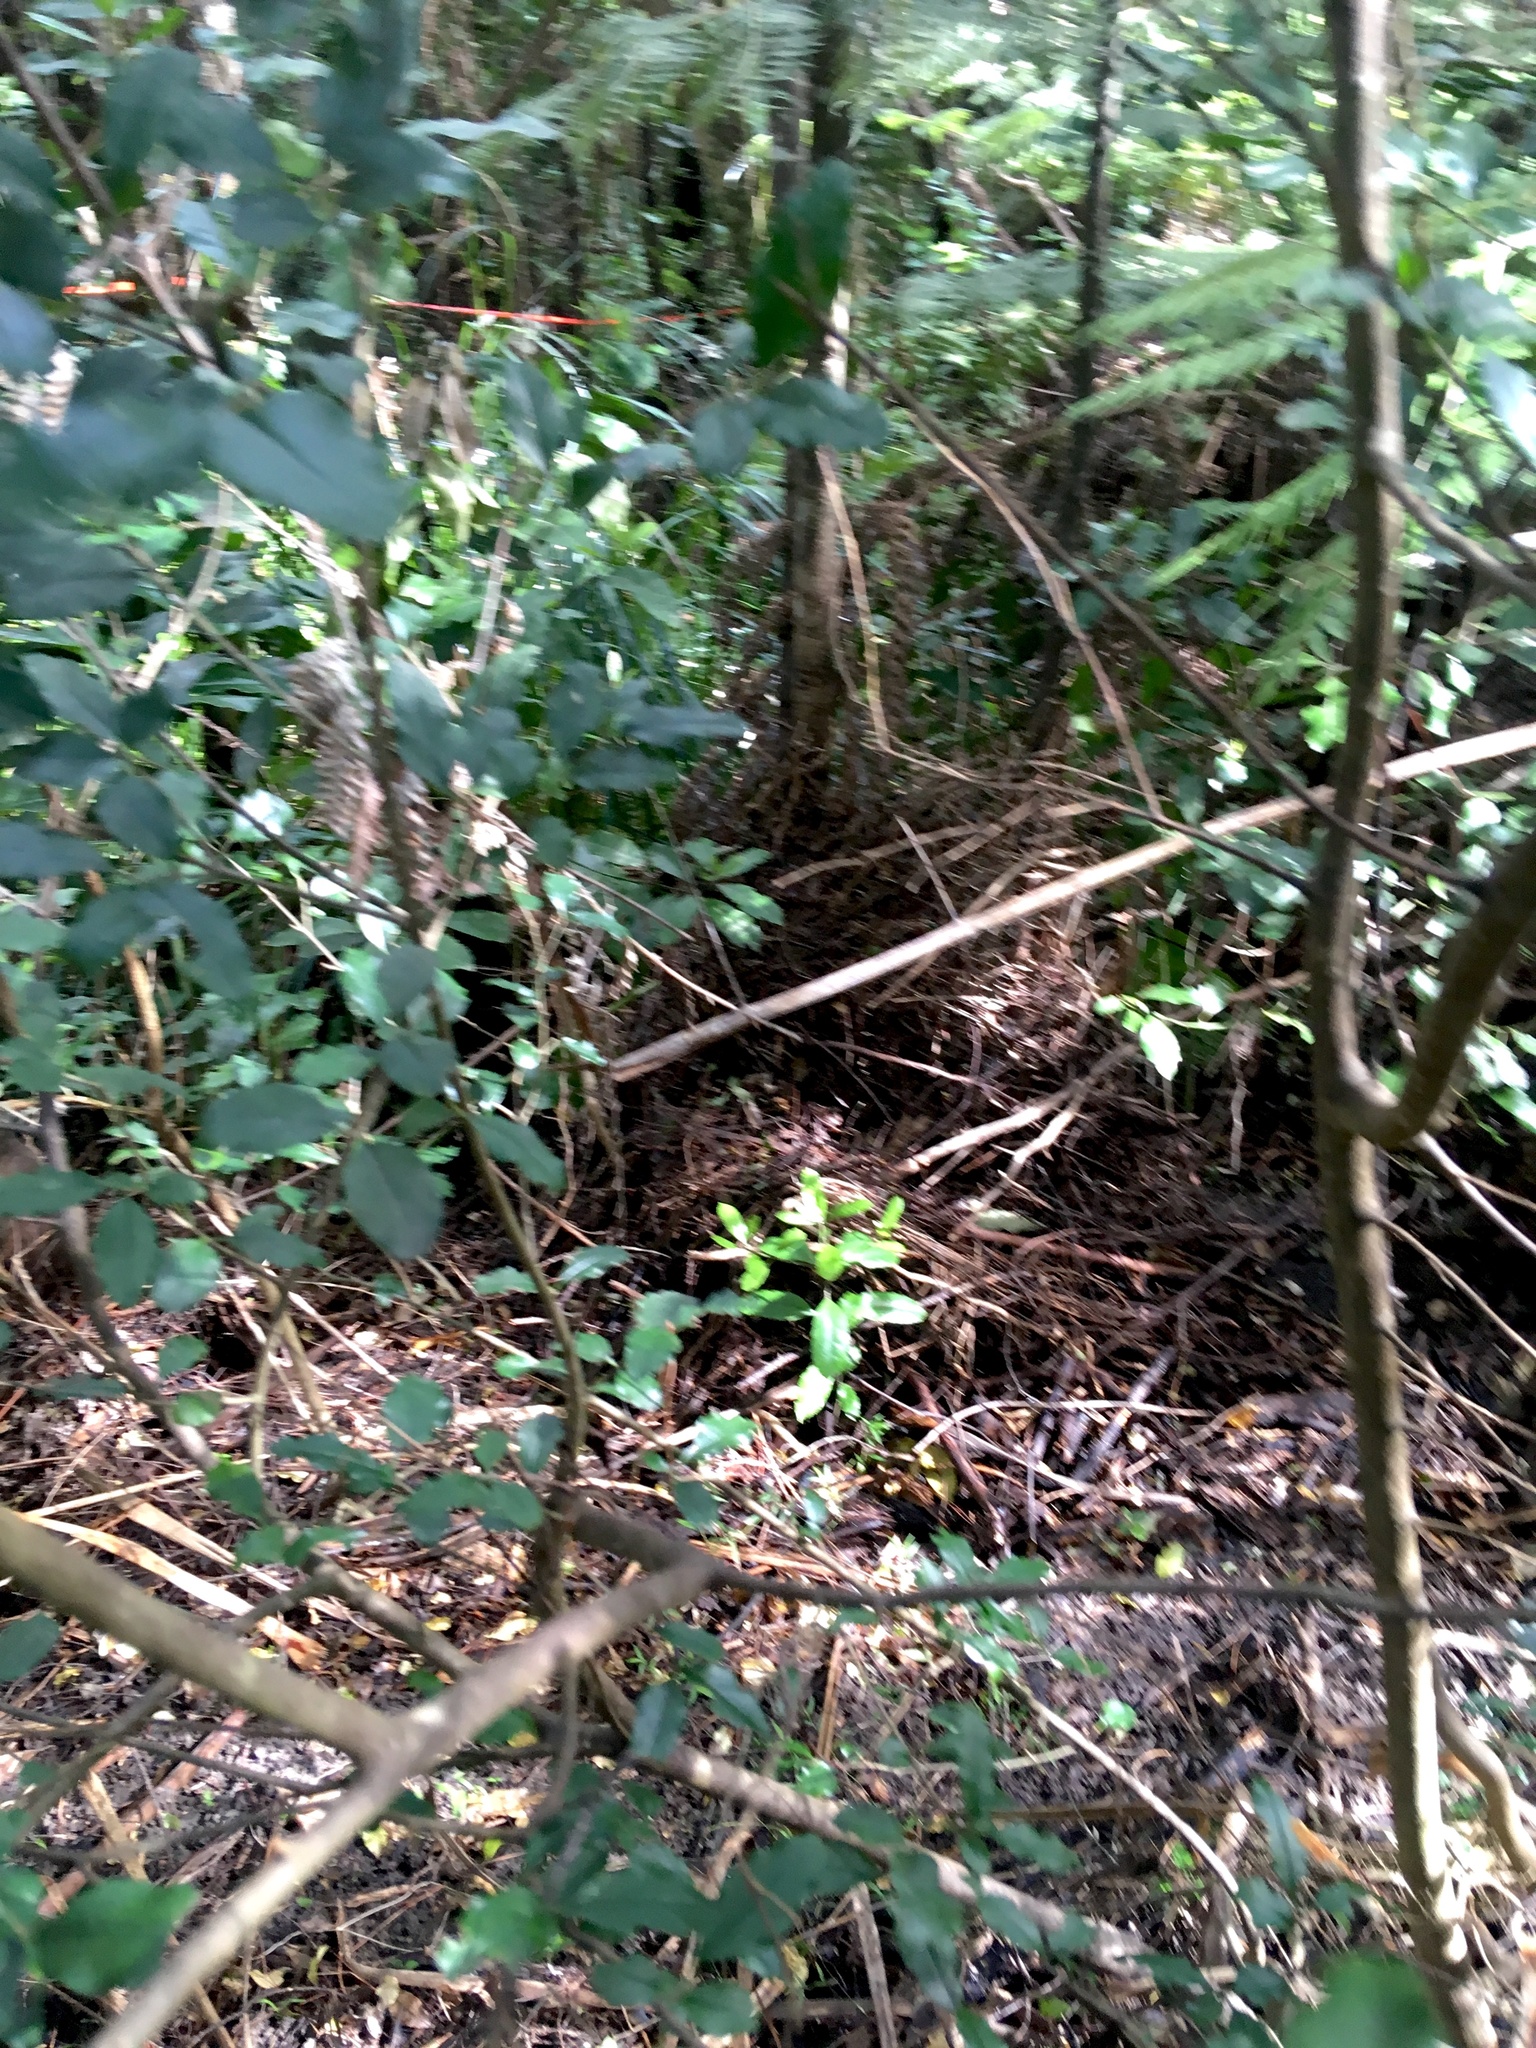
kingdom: Plantae
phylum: Tracheophyta
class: Magnoliopsida
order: Lamiales
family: Oleaceae
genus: Ligustrum
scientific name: Ligustrum sinense
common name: Chinese privet
